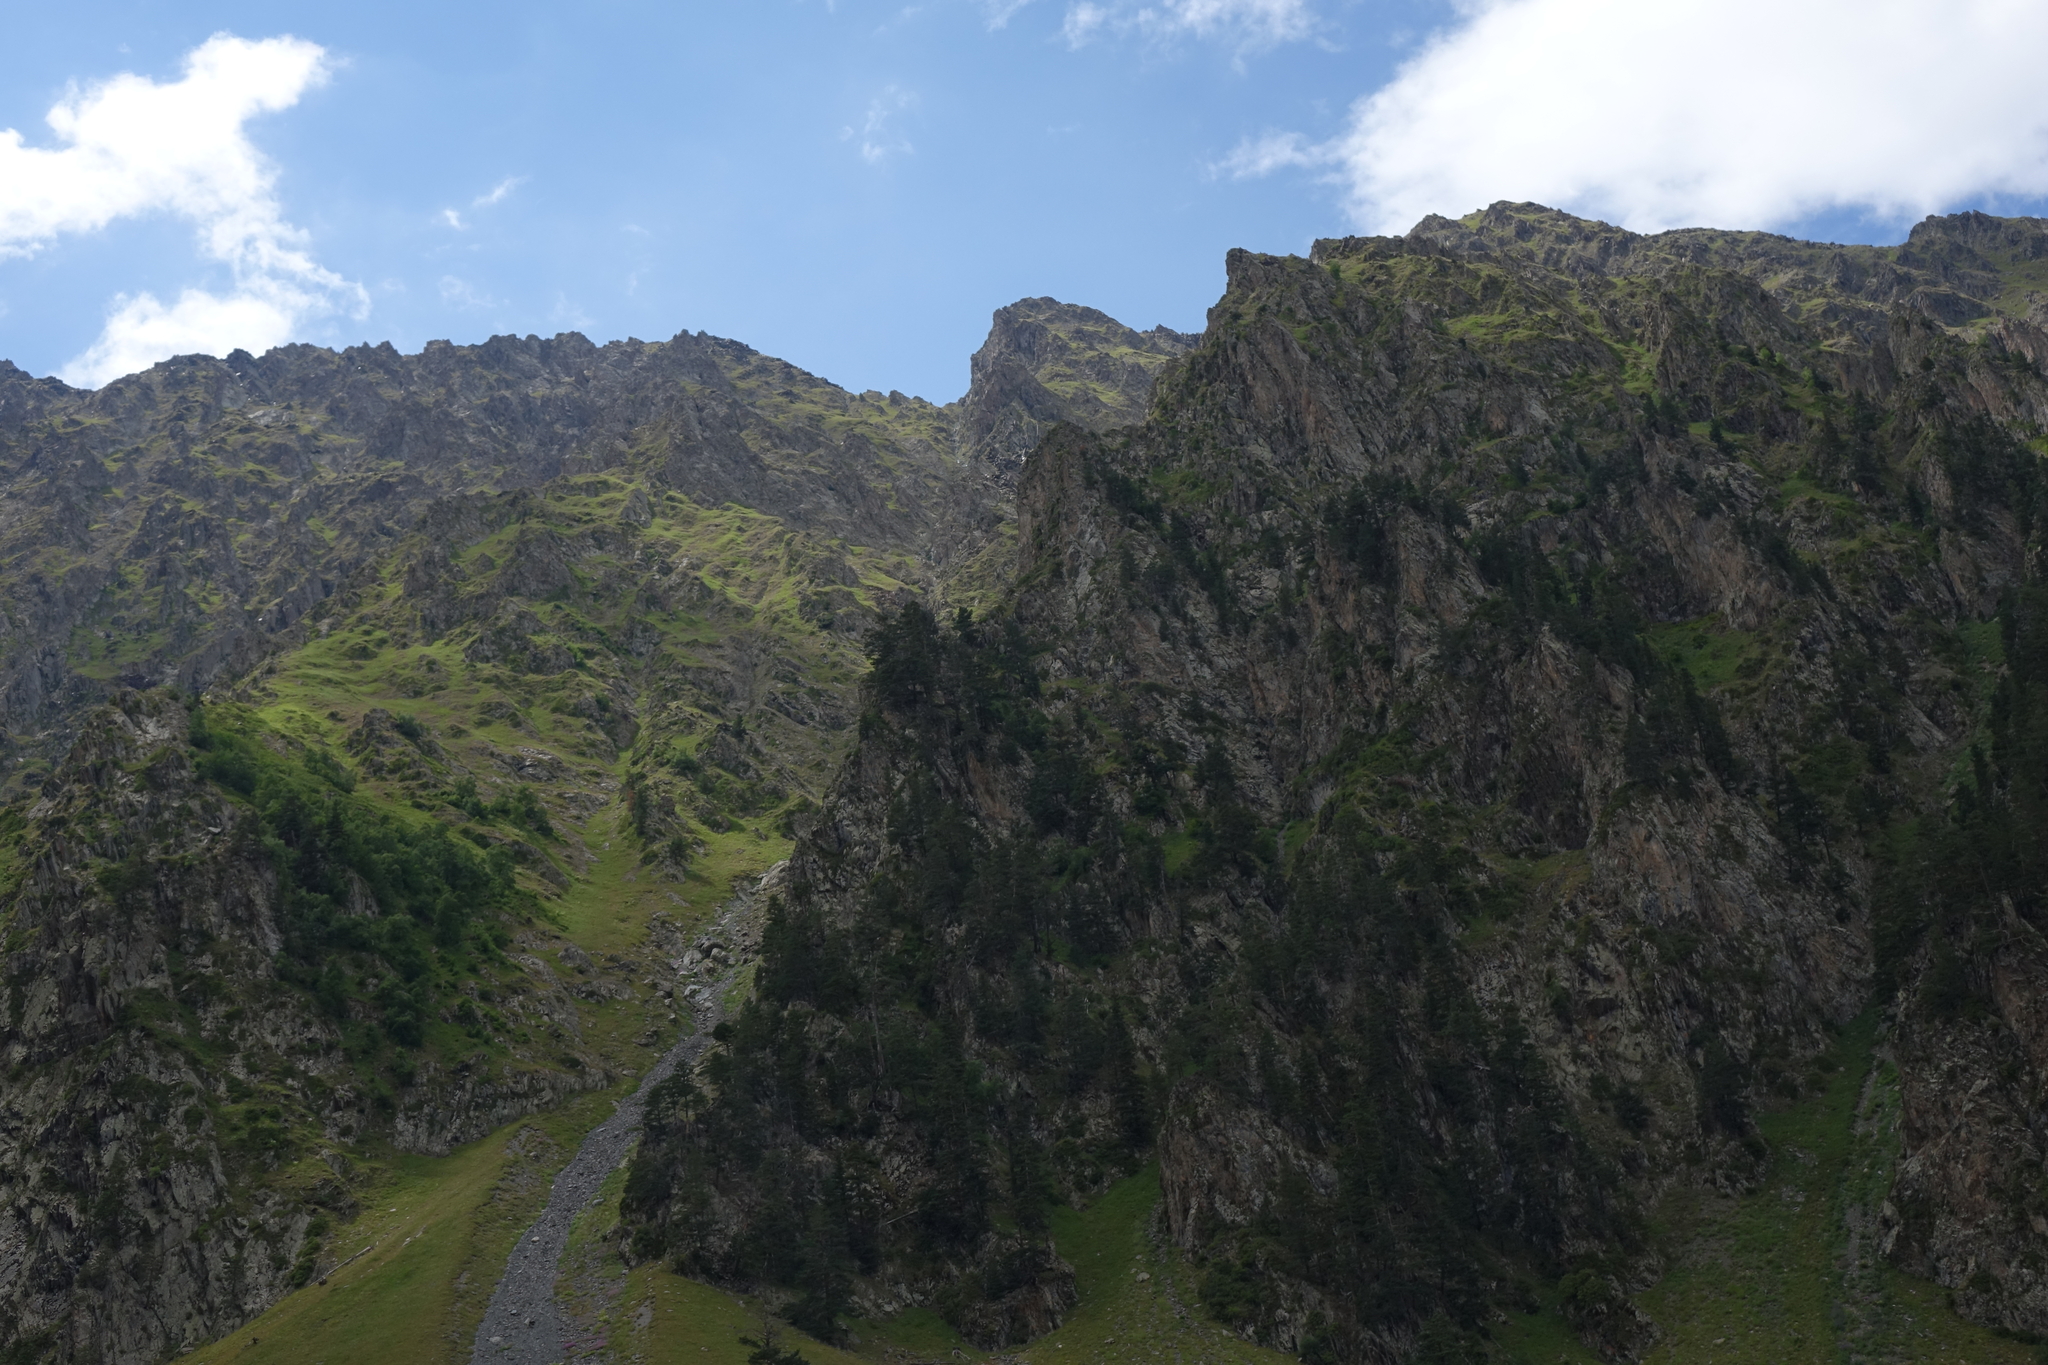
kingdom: Plantae
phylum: Tracheophyta
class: Pinopsida
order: Pinales
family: Pinaceae
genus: Pinus
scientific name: Pinus sylvestris
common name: Scots pine
